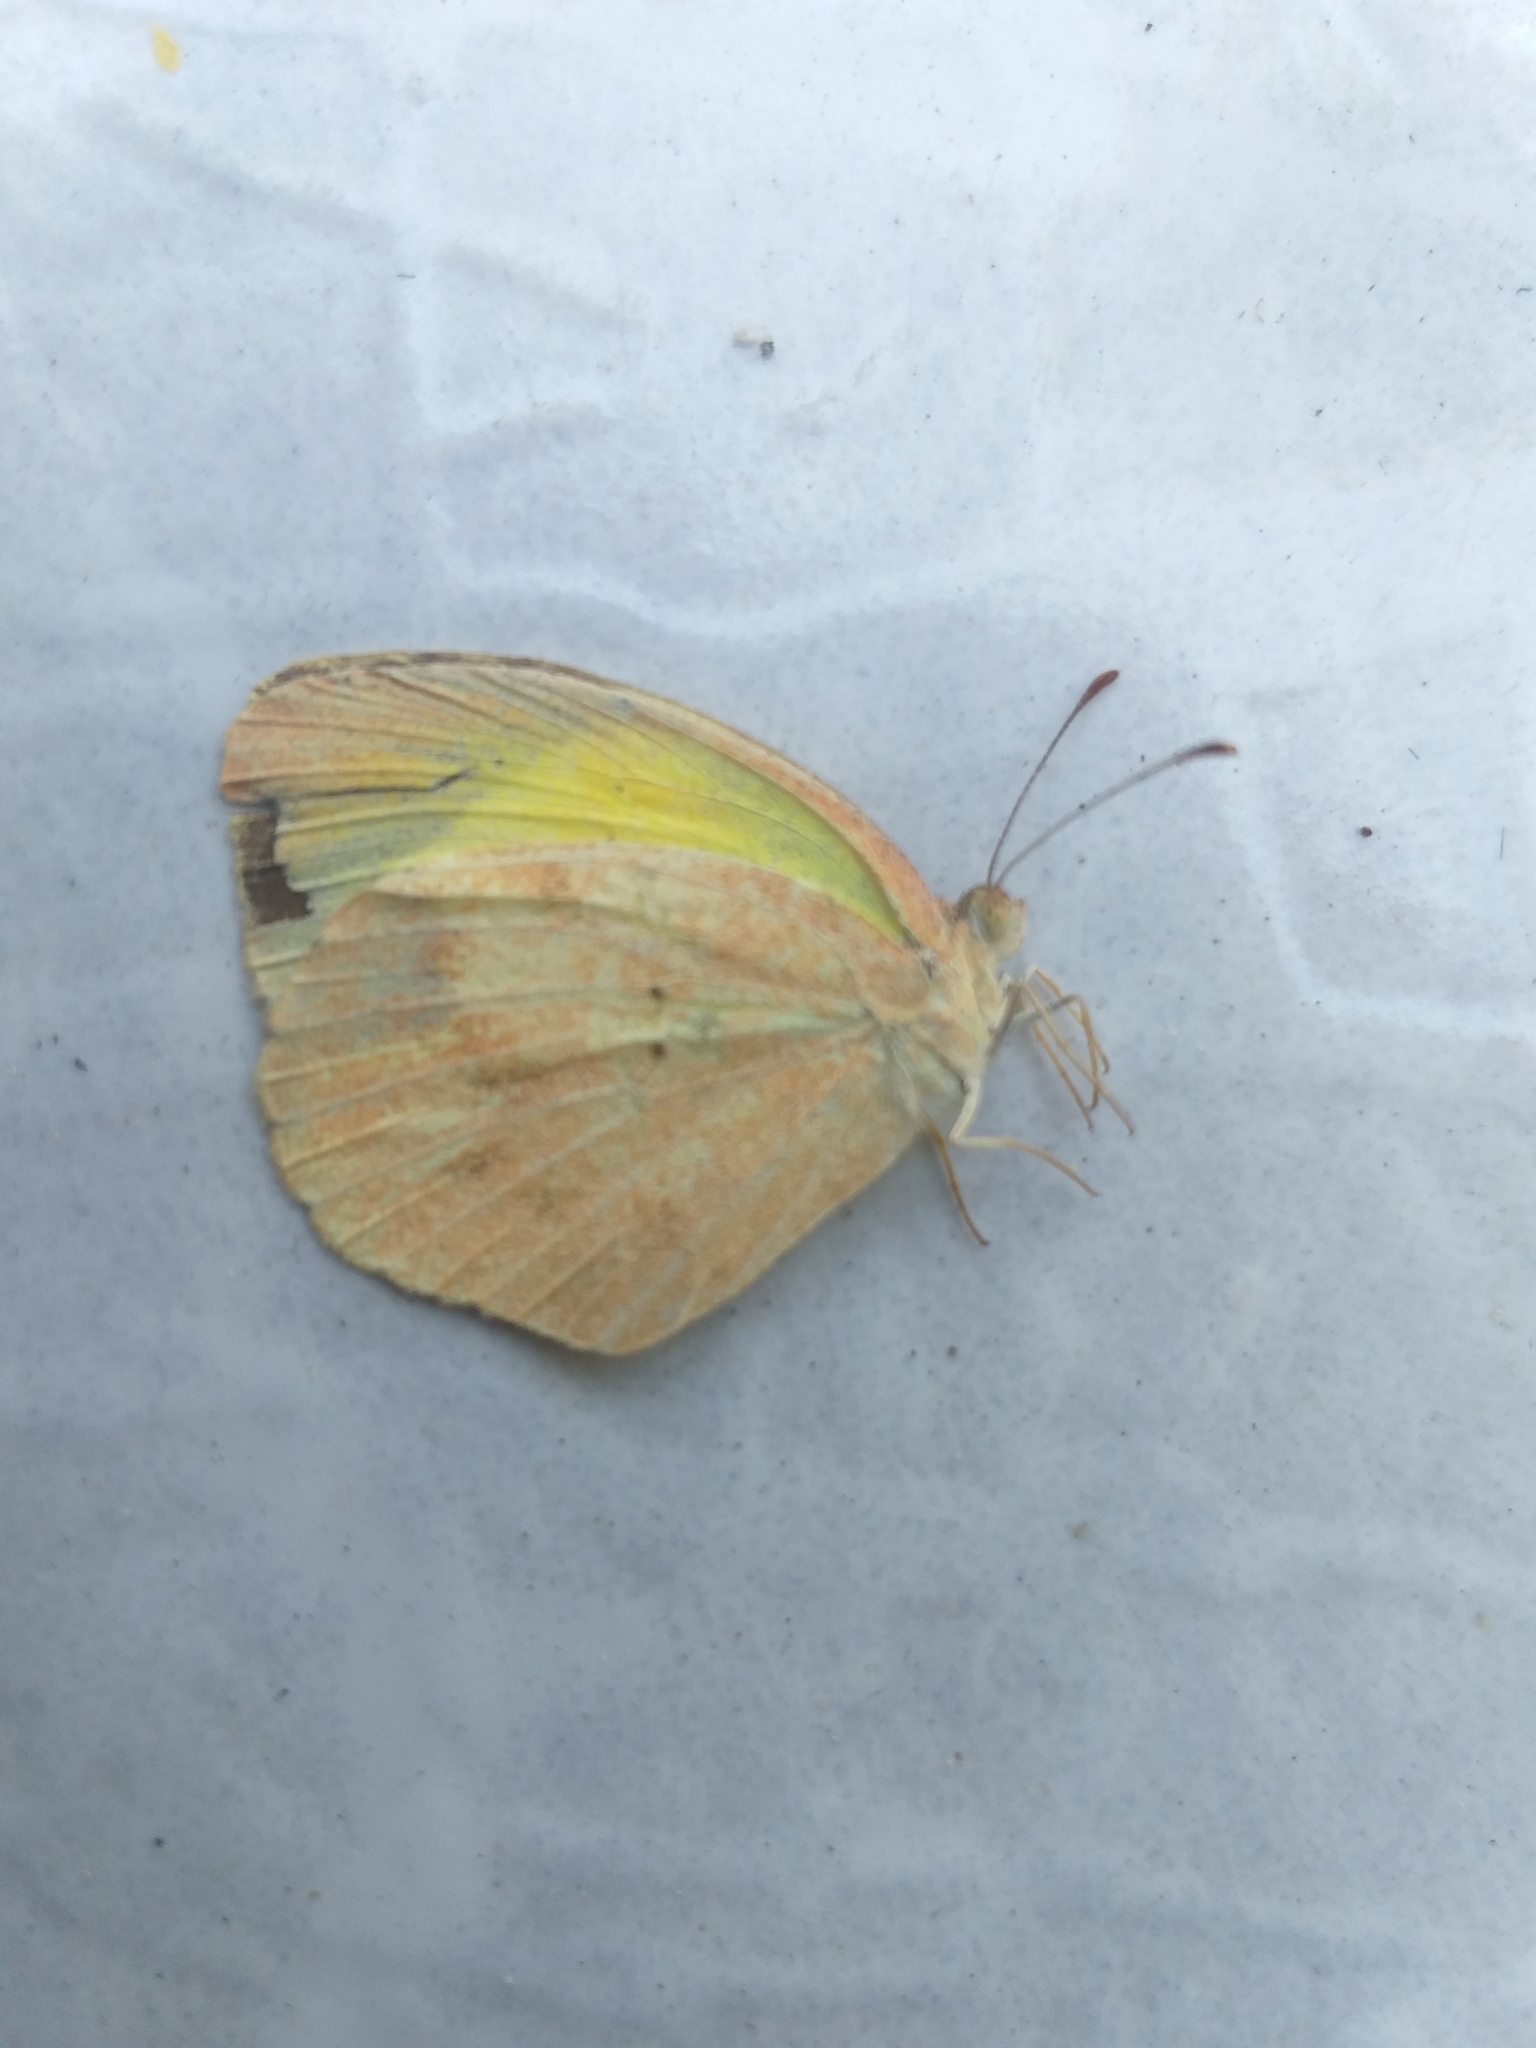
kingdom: Animalia
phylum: Arthropoda
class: Insecta
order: Lepidoptera
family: Pieridae
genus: Eurema
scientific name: Eurema daira
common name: Barred sulphur
